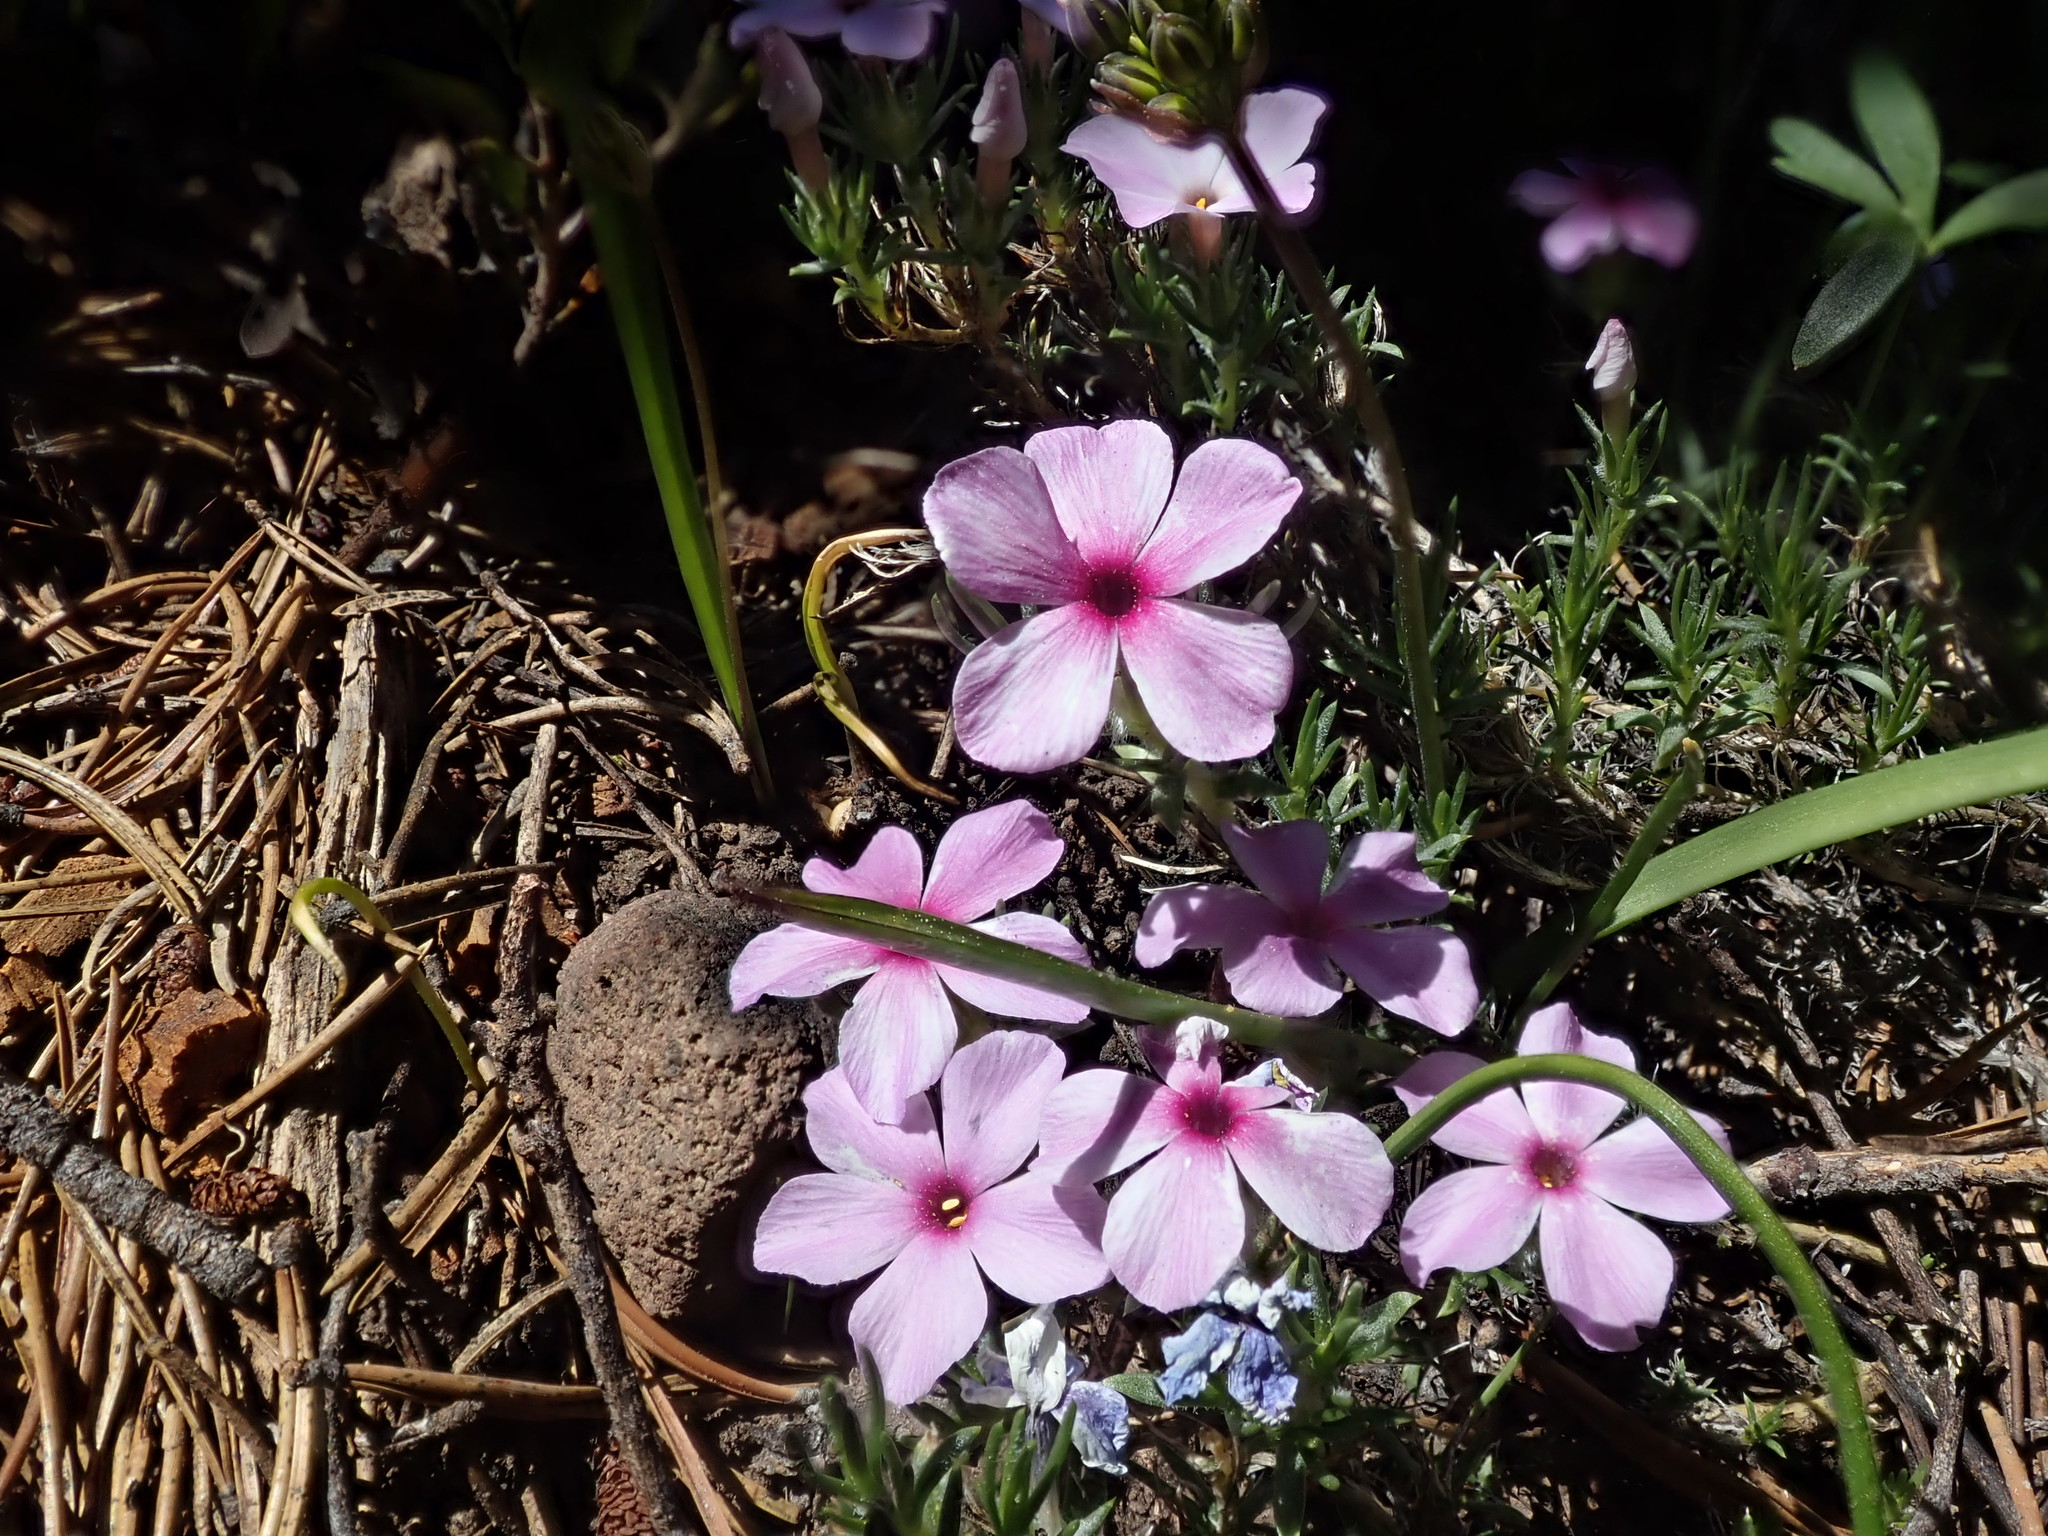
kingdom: Plantae
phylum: Tracheophyta
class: Magnoliopsida
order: Ericales
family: Polemoniaceae
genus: Phlox
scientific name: Phlox diffusa
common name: Mat phlox
